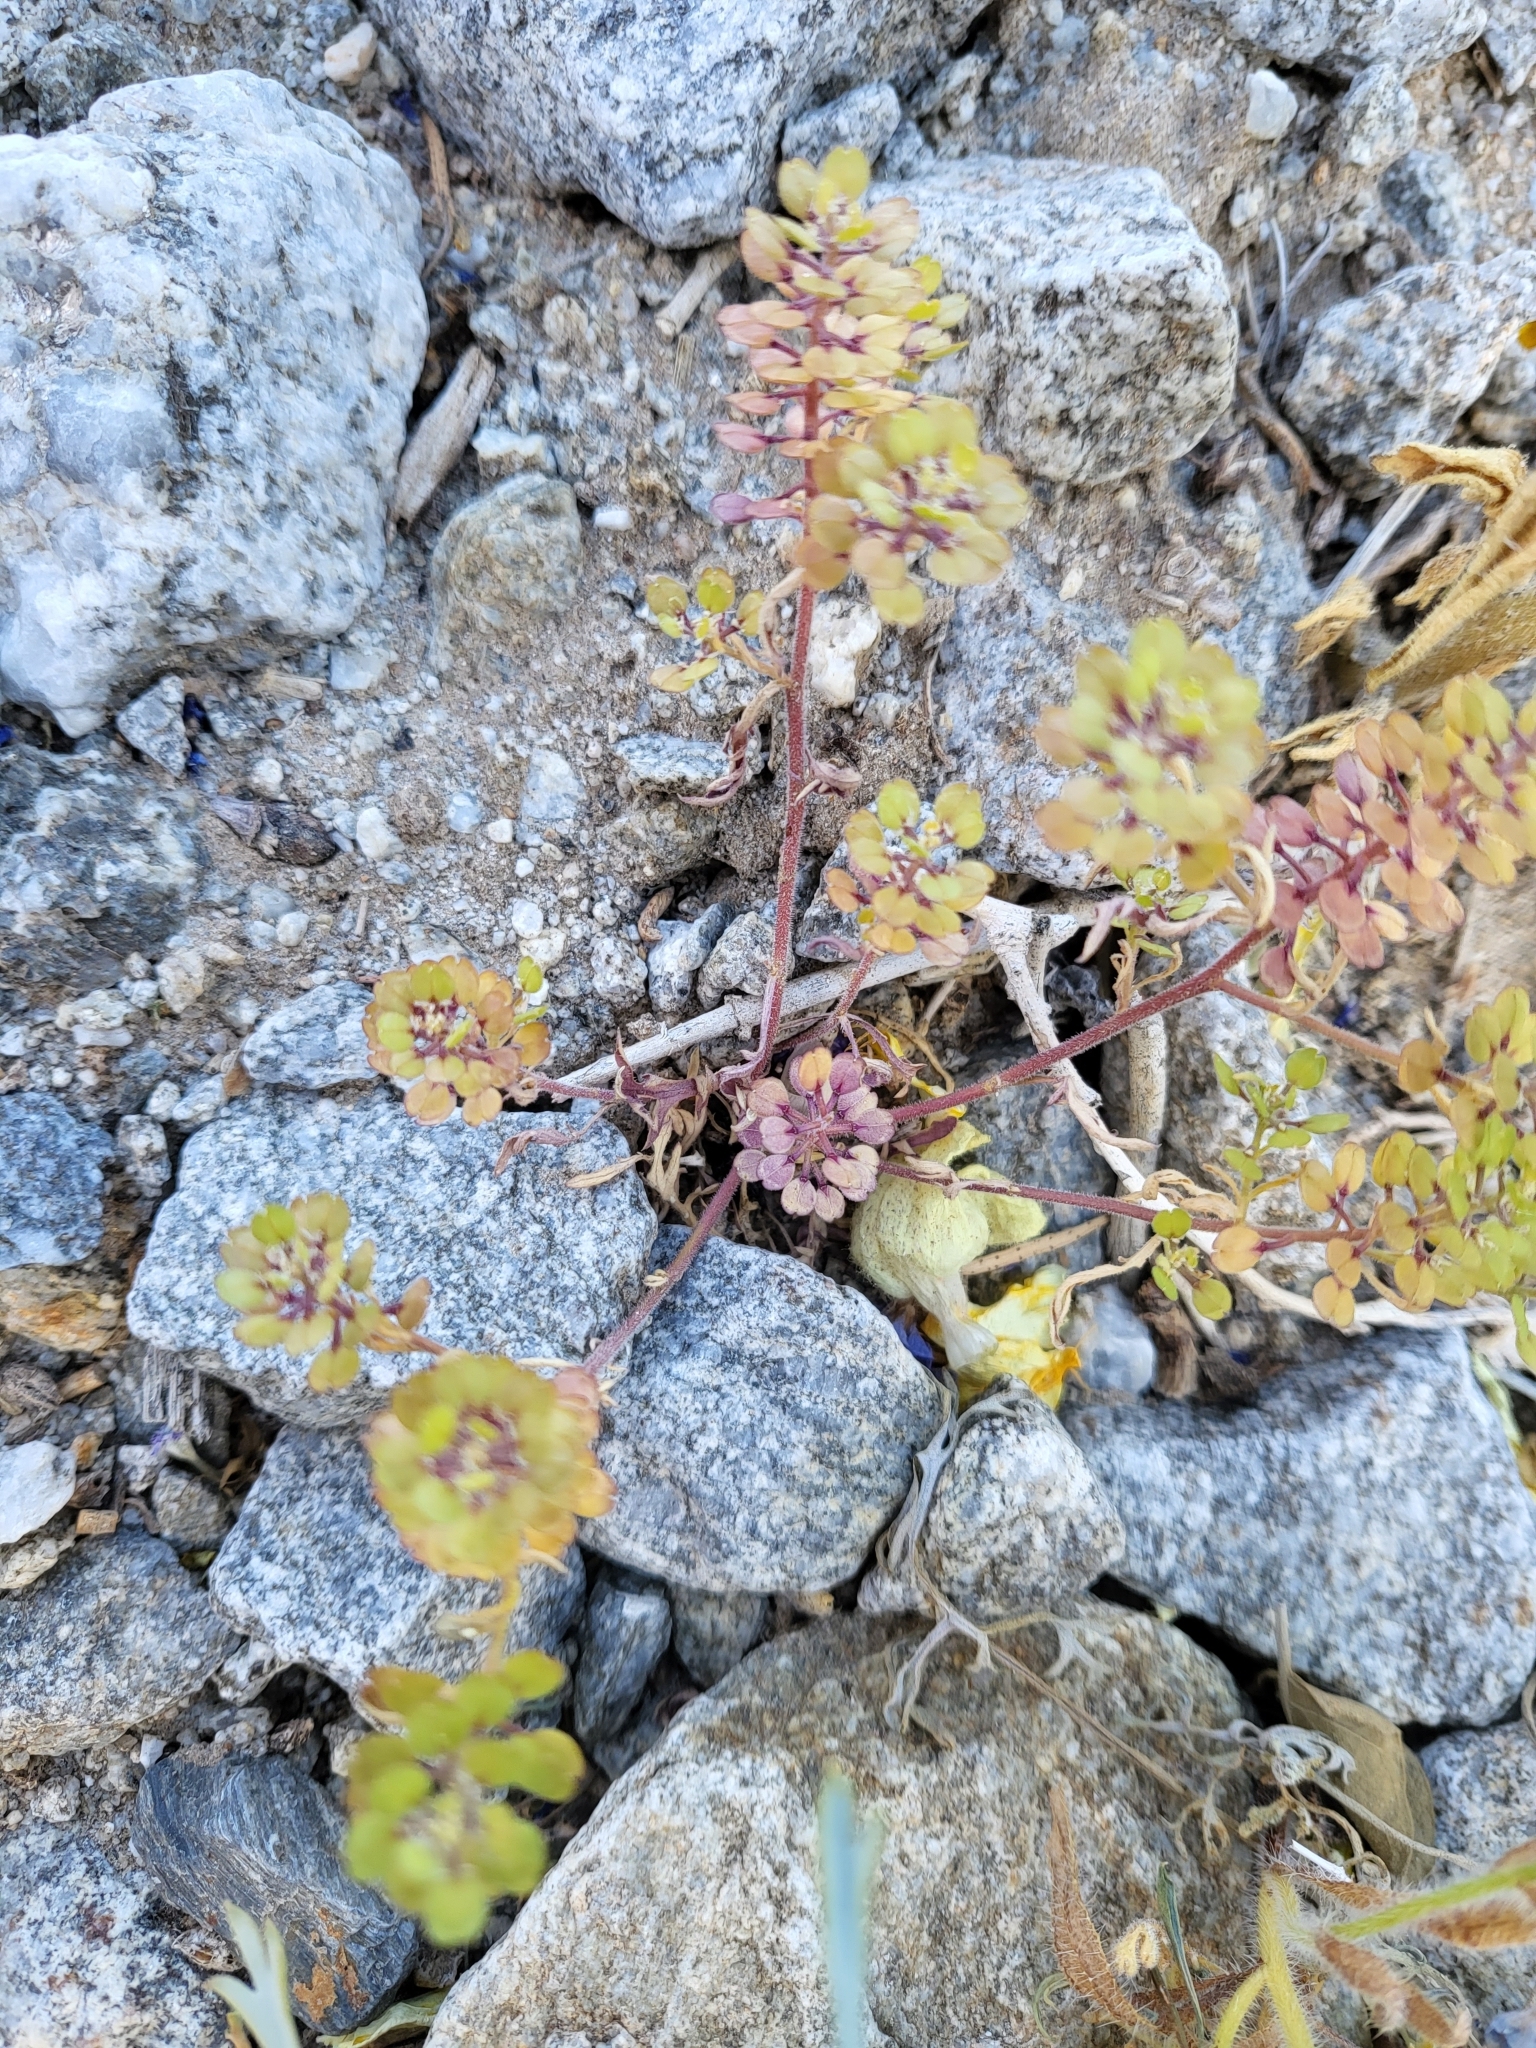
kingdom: Plantae
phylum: Tracheophyta
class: Magnoliopsida
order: Brassicales
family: Brassicaceae
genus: Lepidium
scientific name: Lepidium lasiocarpum
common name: Hairy-pod pepperwort
